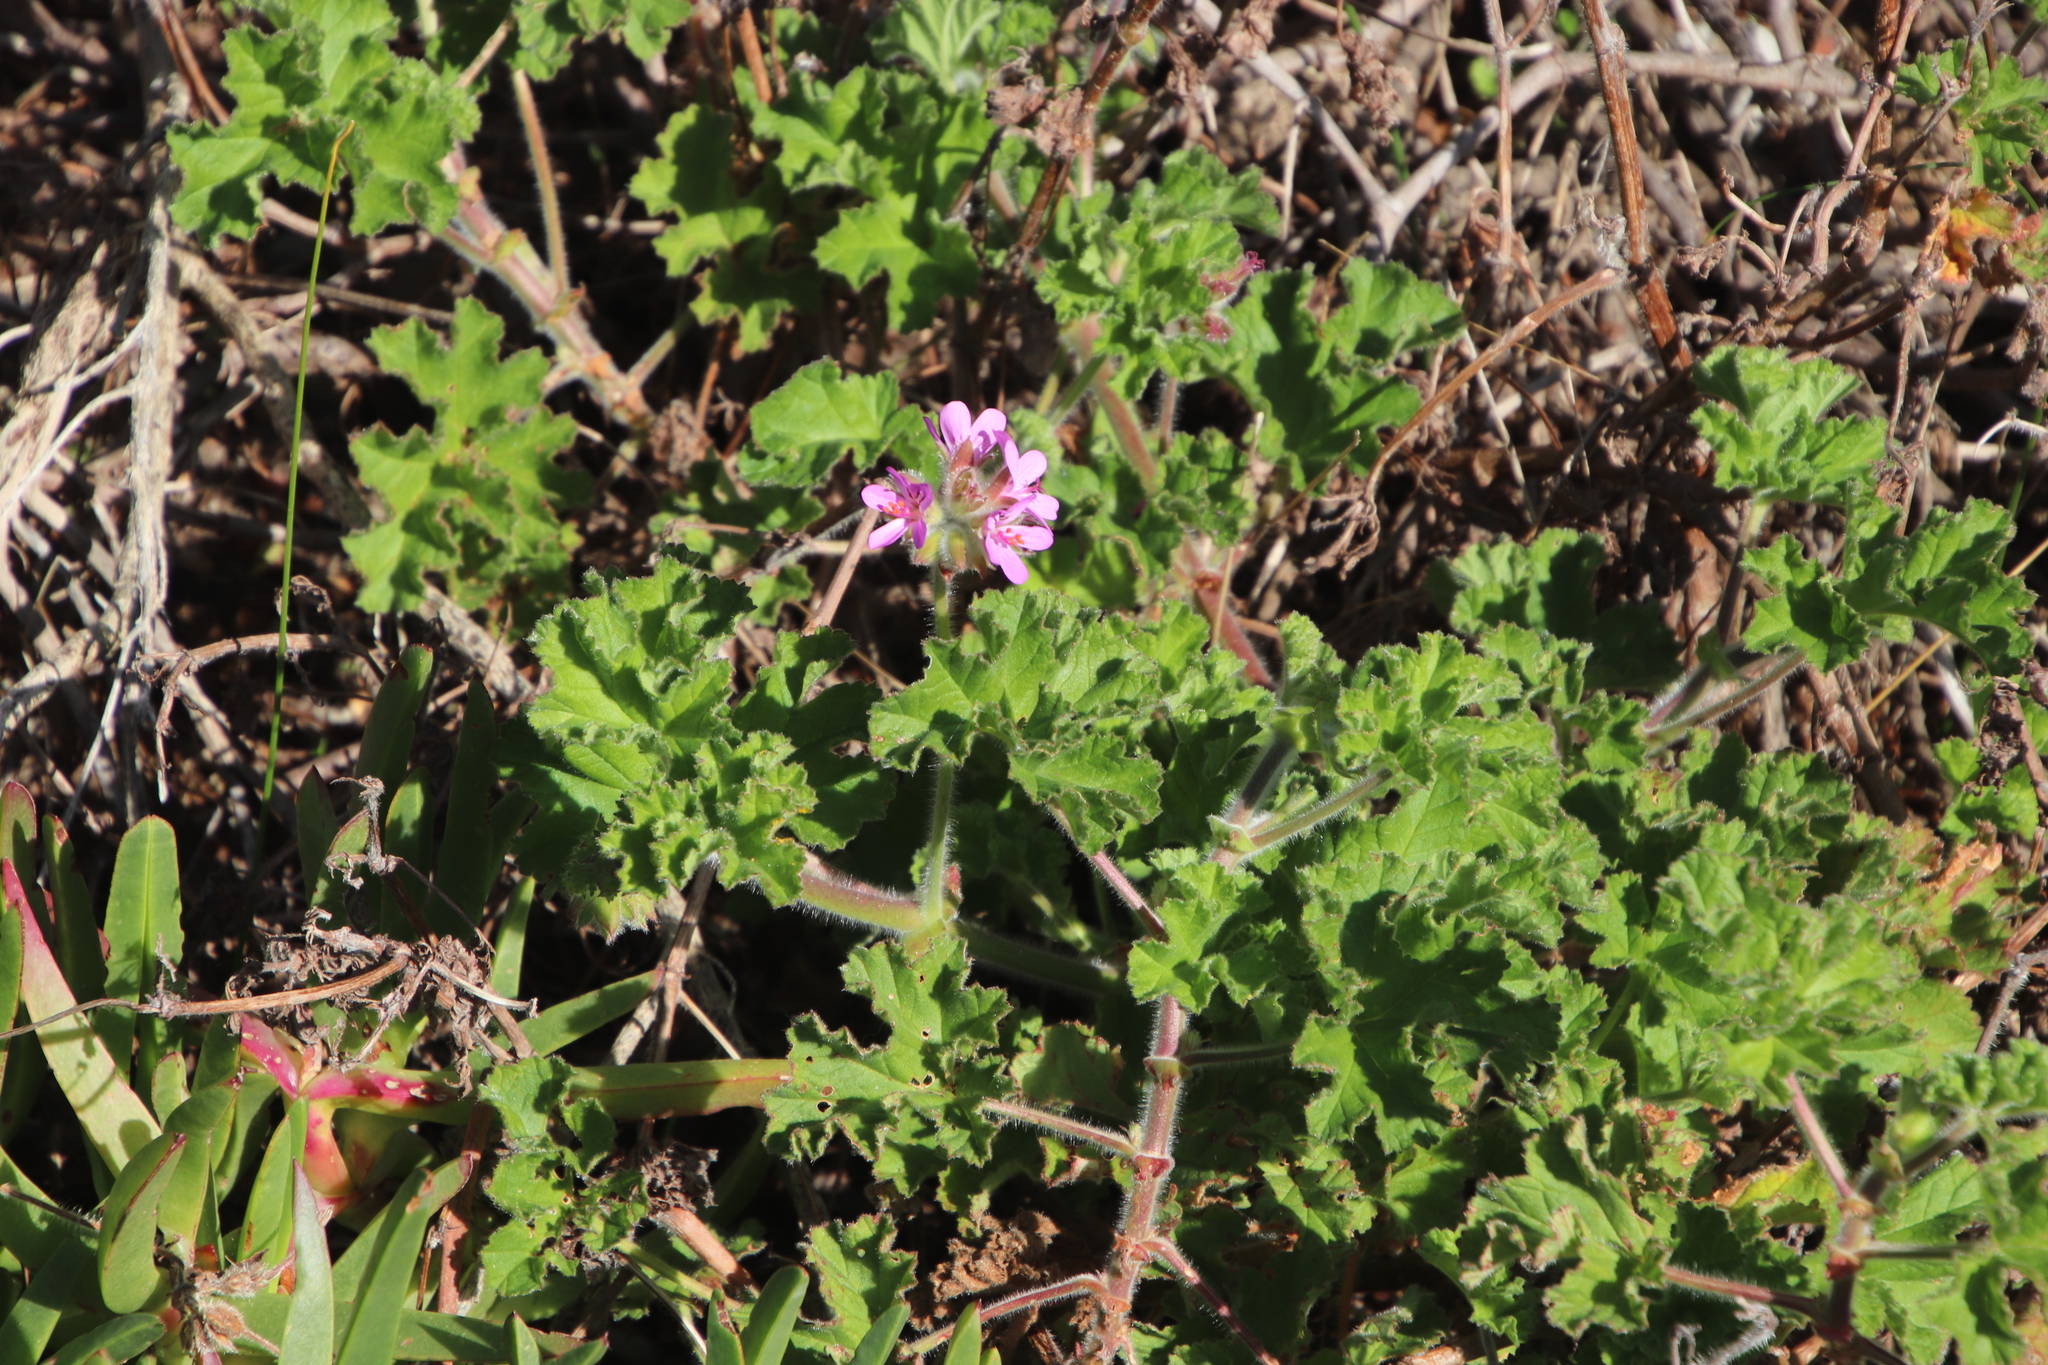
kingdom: Plantae
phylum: Tracheophyta
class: Magnoliopsida
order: Geraniales
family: Geraniaceae
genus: Pelargonium
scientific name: Pelargonium capitatum
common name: Rose scented geranium
